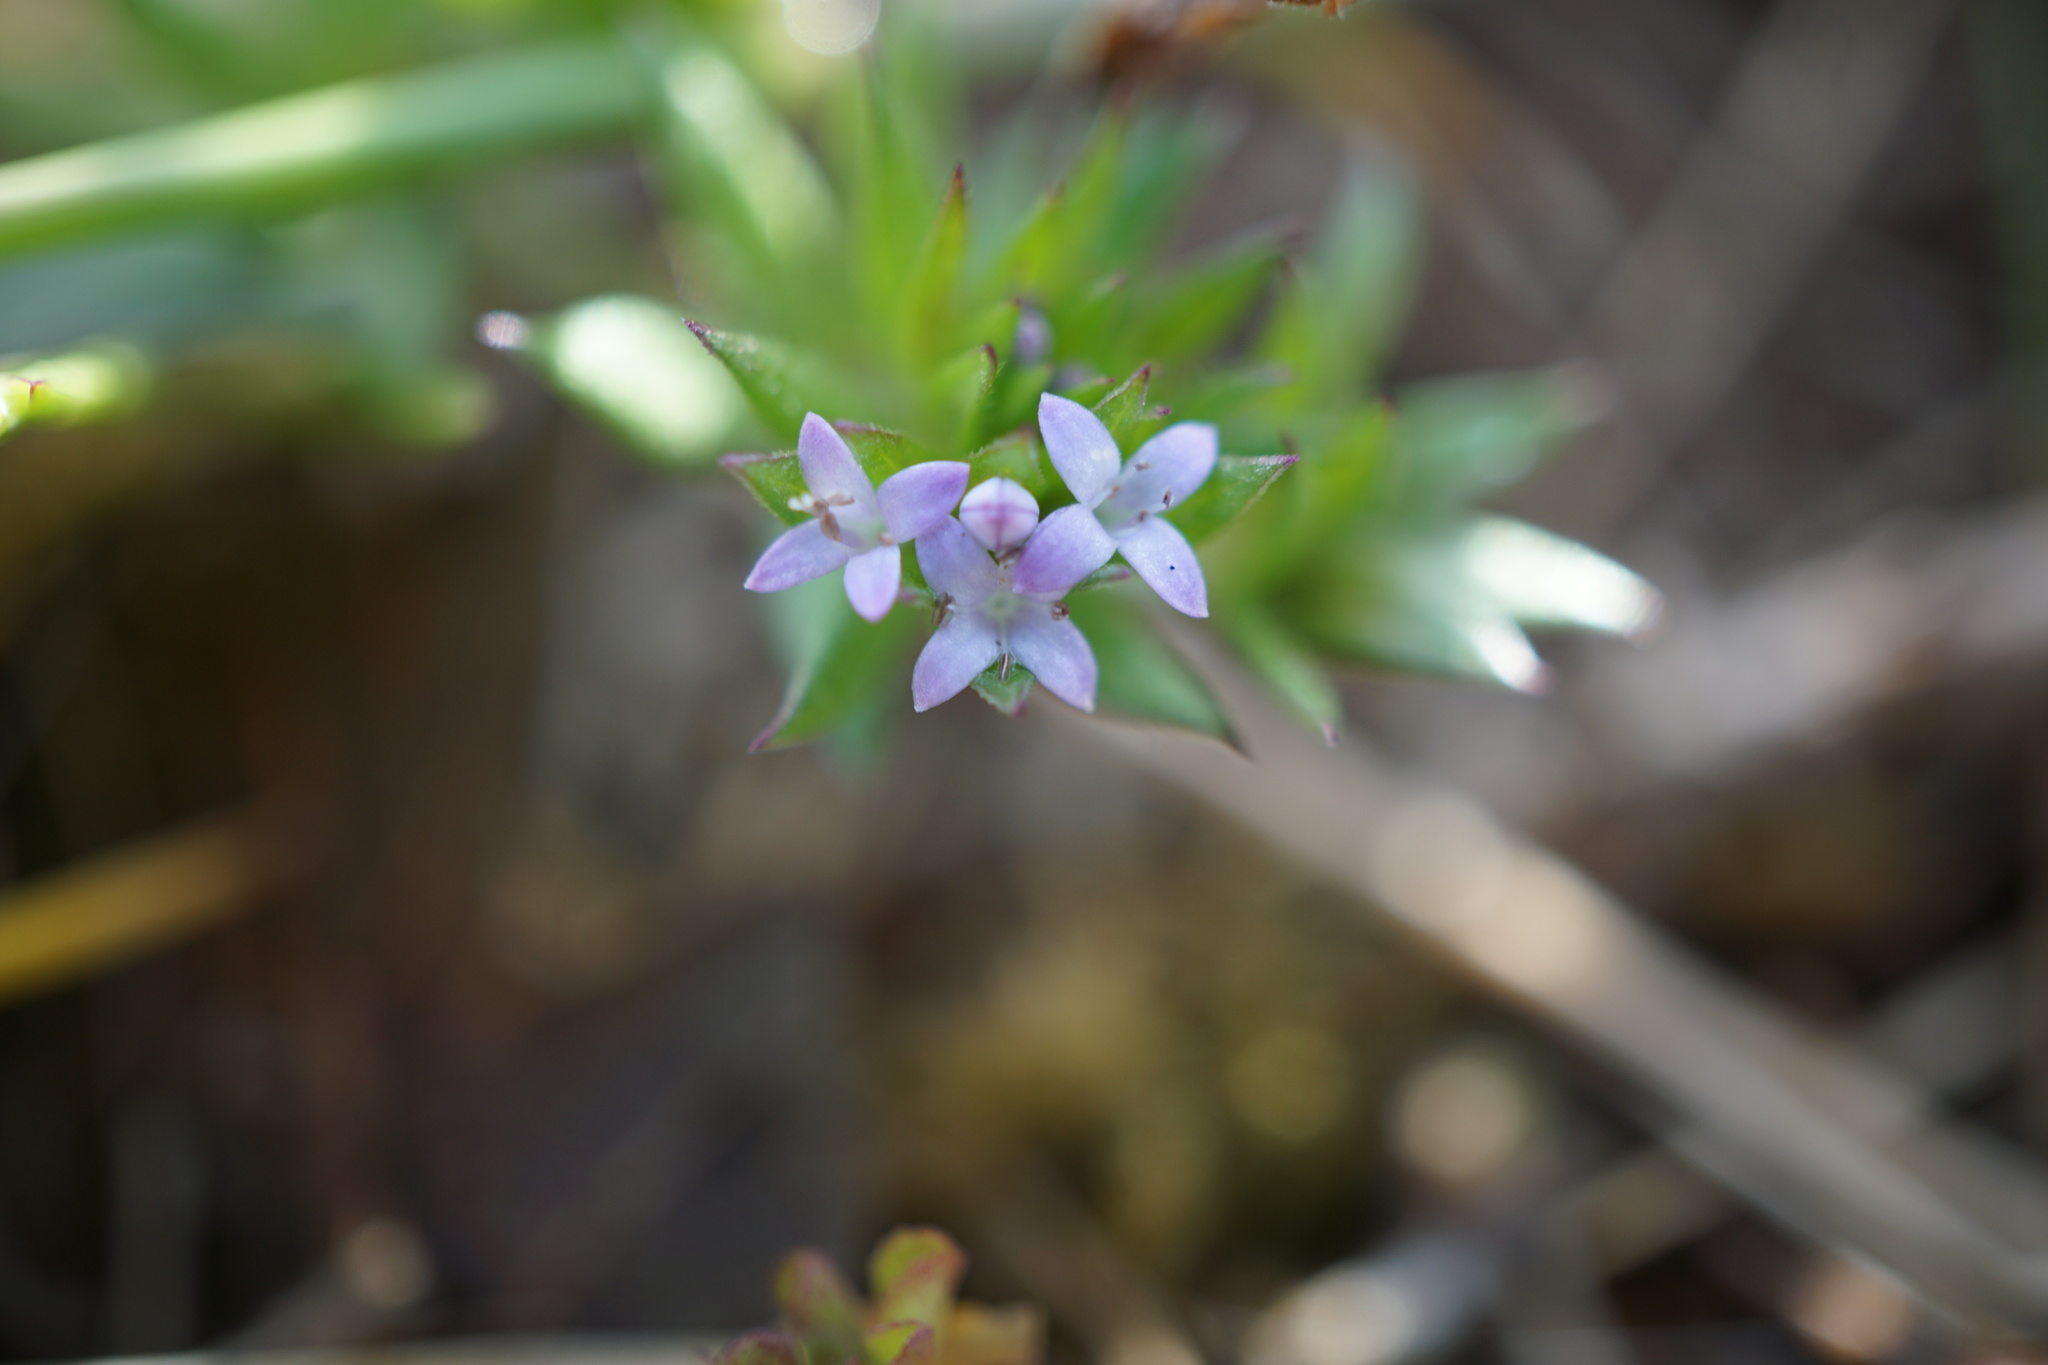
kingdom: Plantae
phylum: Tracheophyta
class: Magnoliopsida
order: Gentianales
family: Rubiaceae
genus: Sherardia
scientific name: Sherardia arvensis
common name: Field madder
